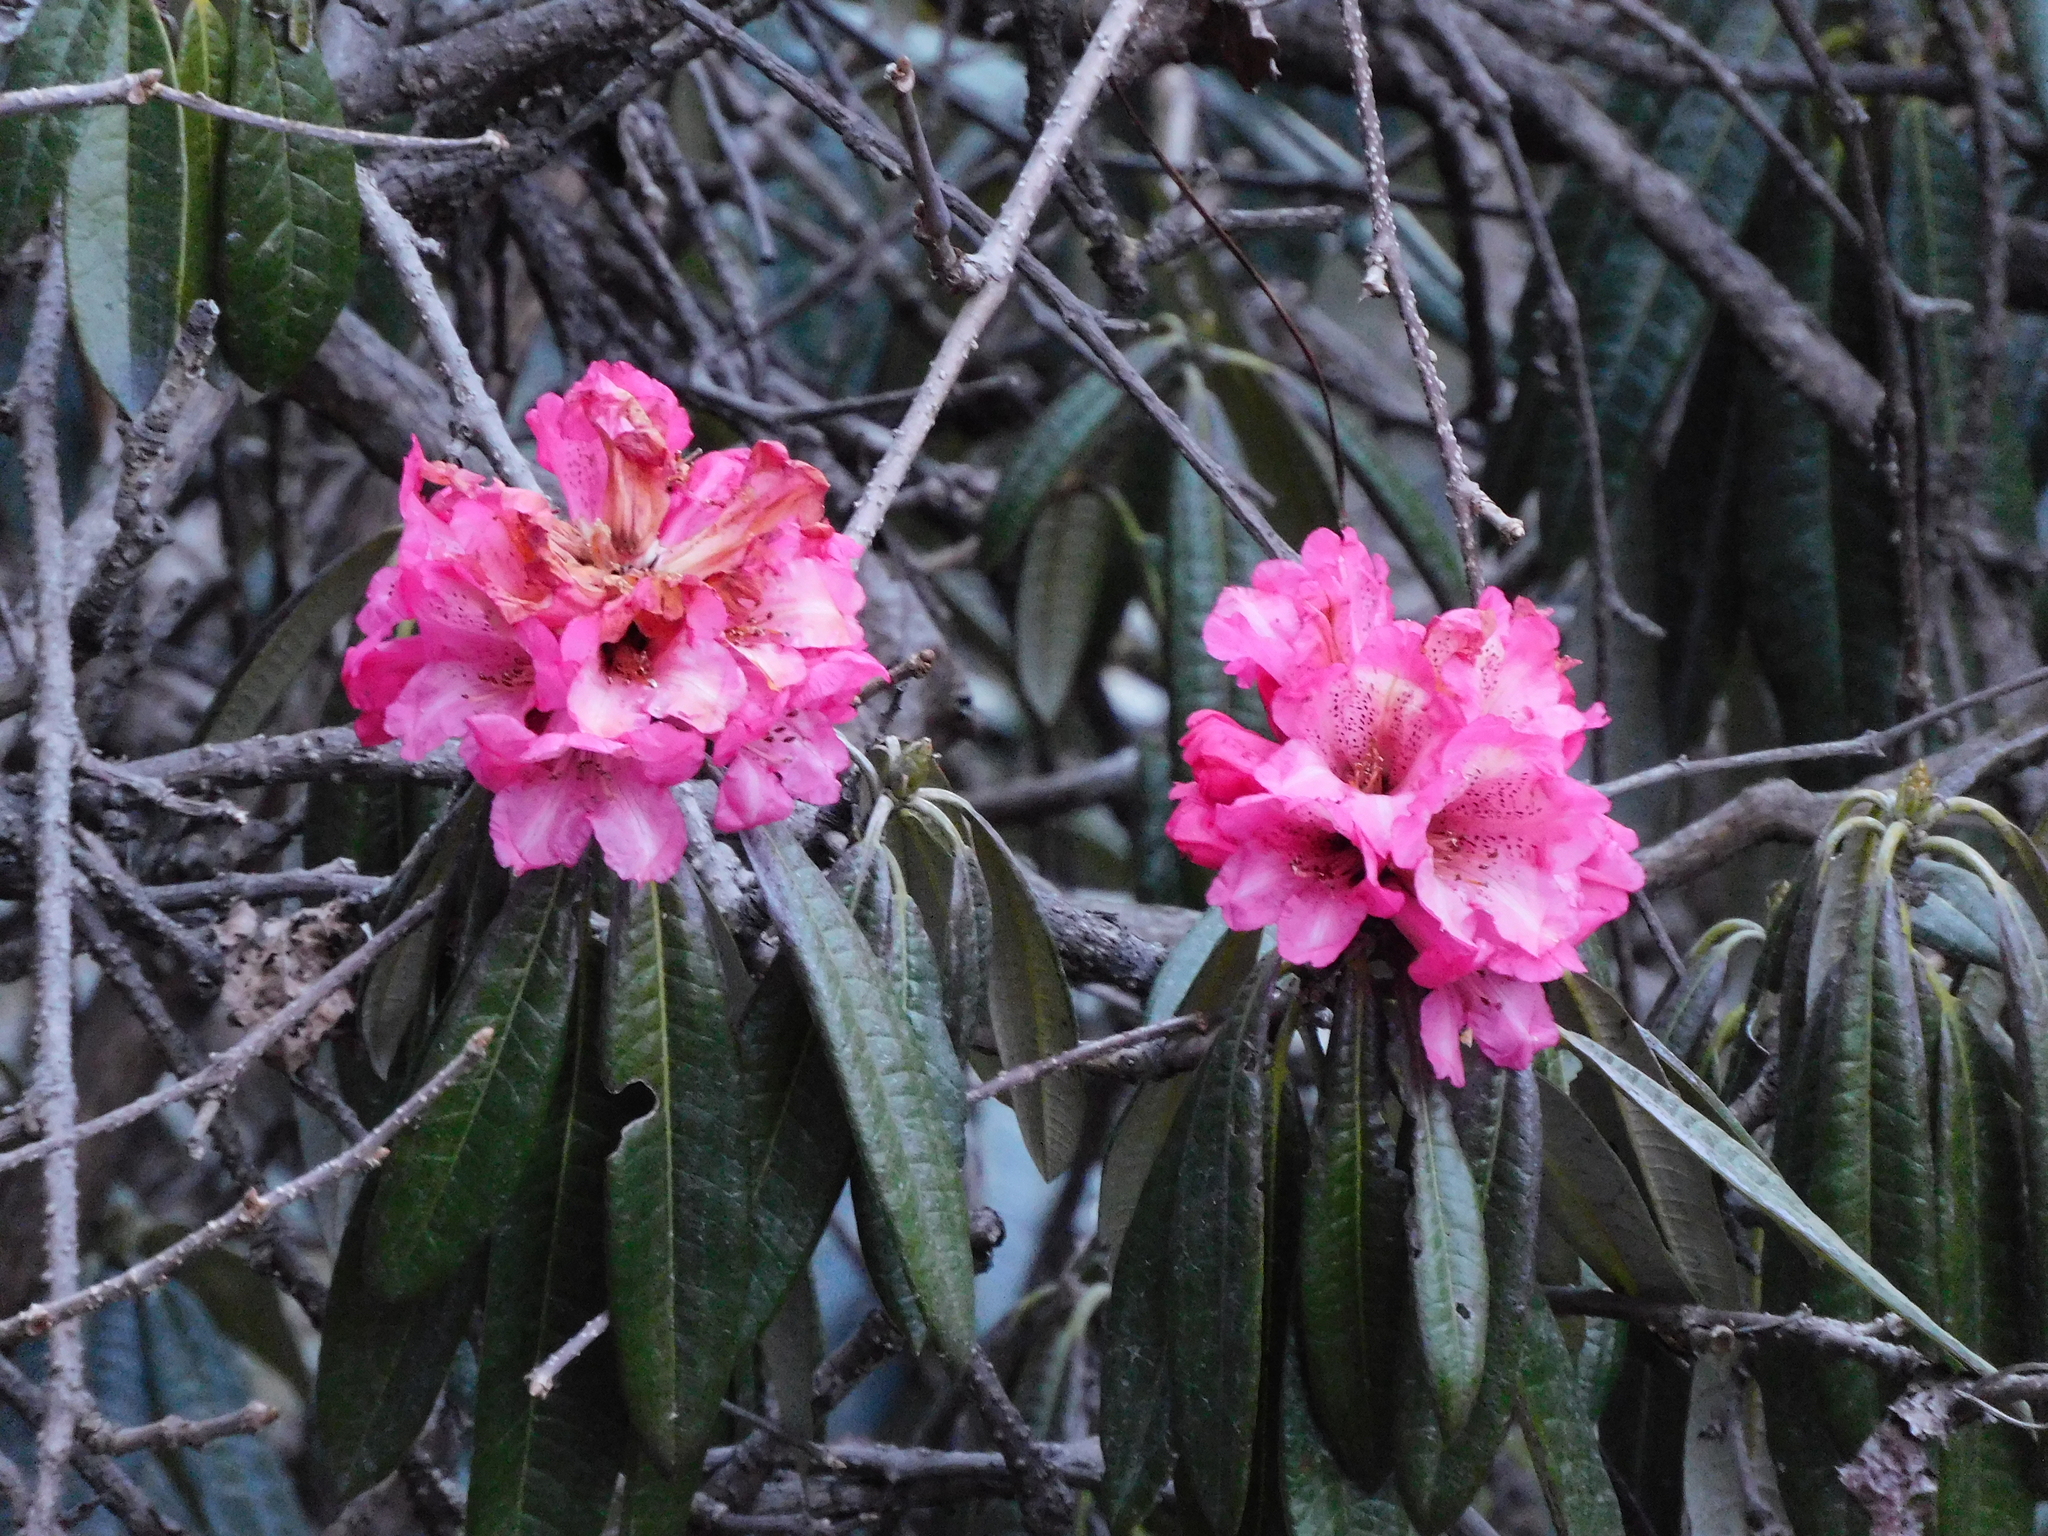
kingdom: Plantae
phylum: Tracheophyta
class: Magnoliopsida
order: Ericales
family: Ericaceae
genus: Rhododendron
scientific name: Rhododendron arboreum
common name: Tree rhododendron
